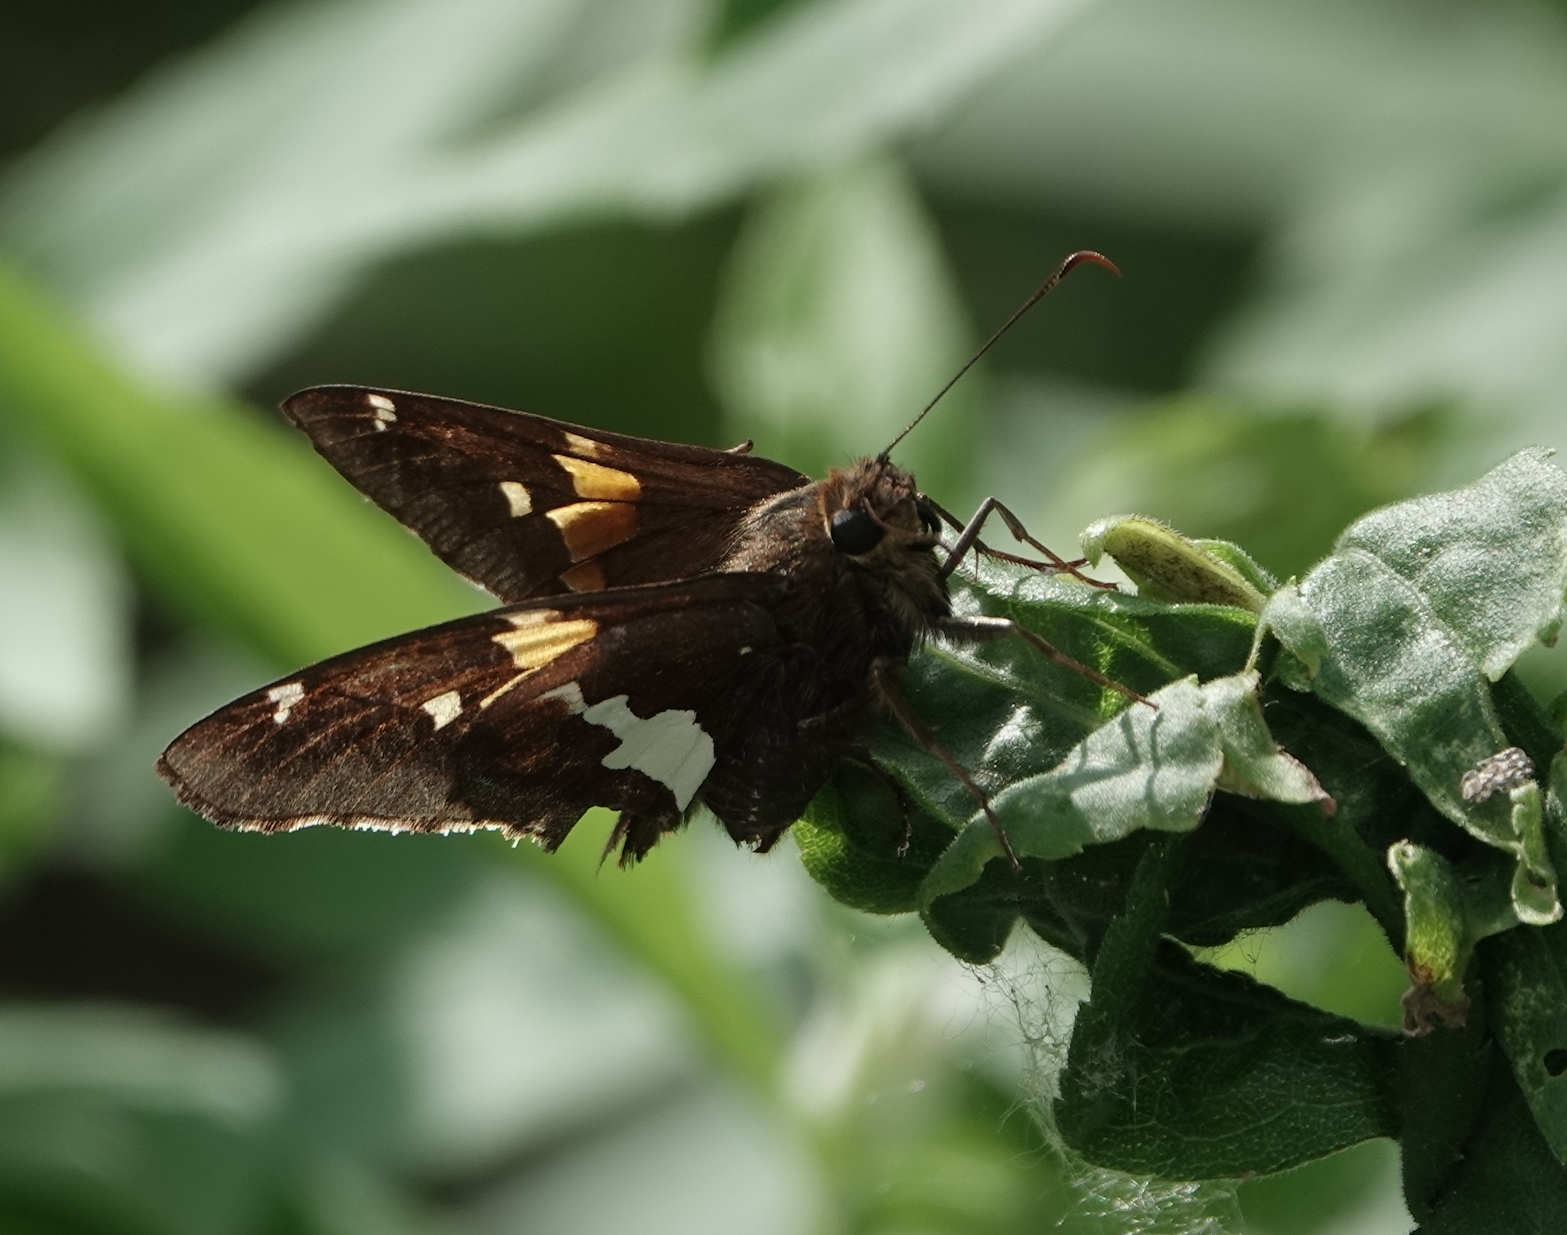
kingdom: Animalia
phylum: Arthropoda
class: Insecta
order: Lepidoptera
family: Hesperiidae
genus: Epargyreus
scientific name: Epargyreus clarus
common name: Silver-spotted skipper
